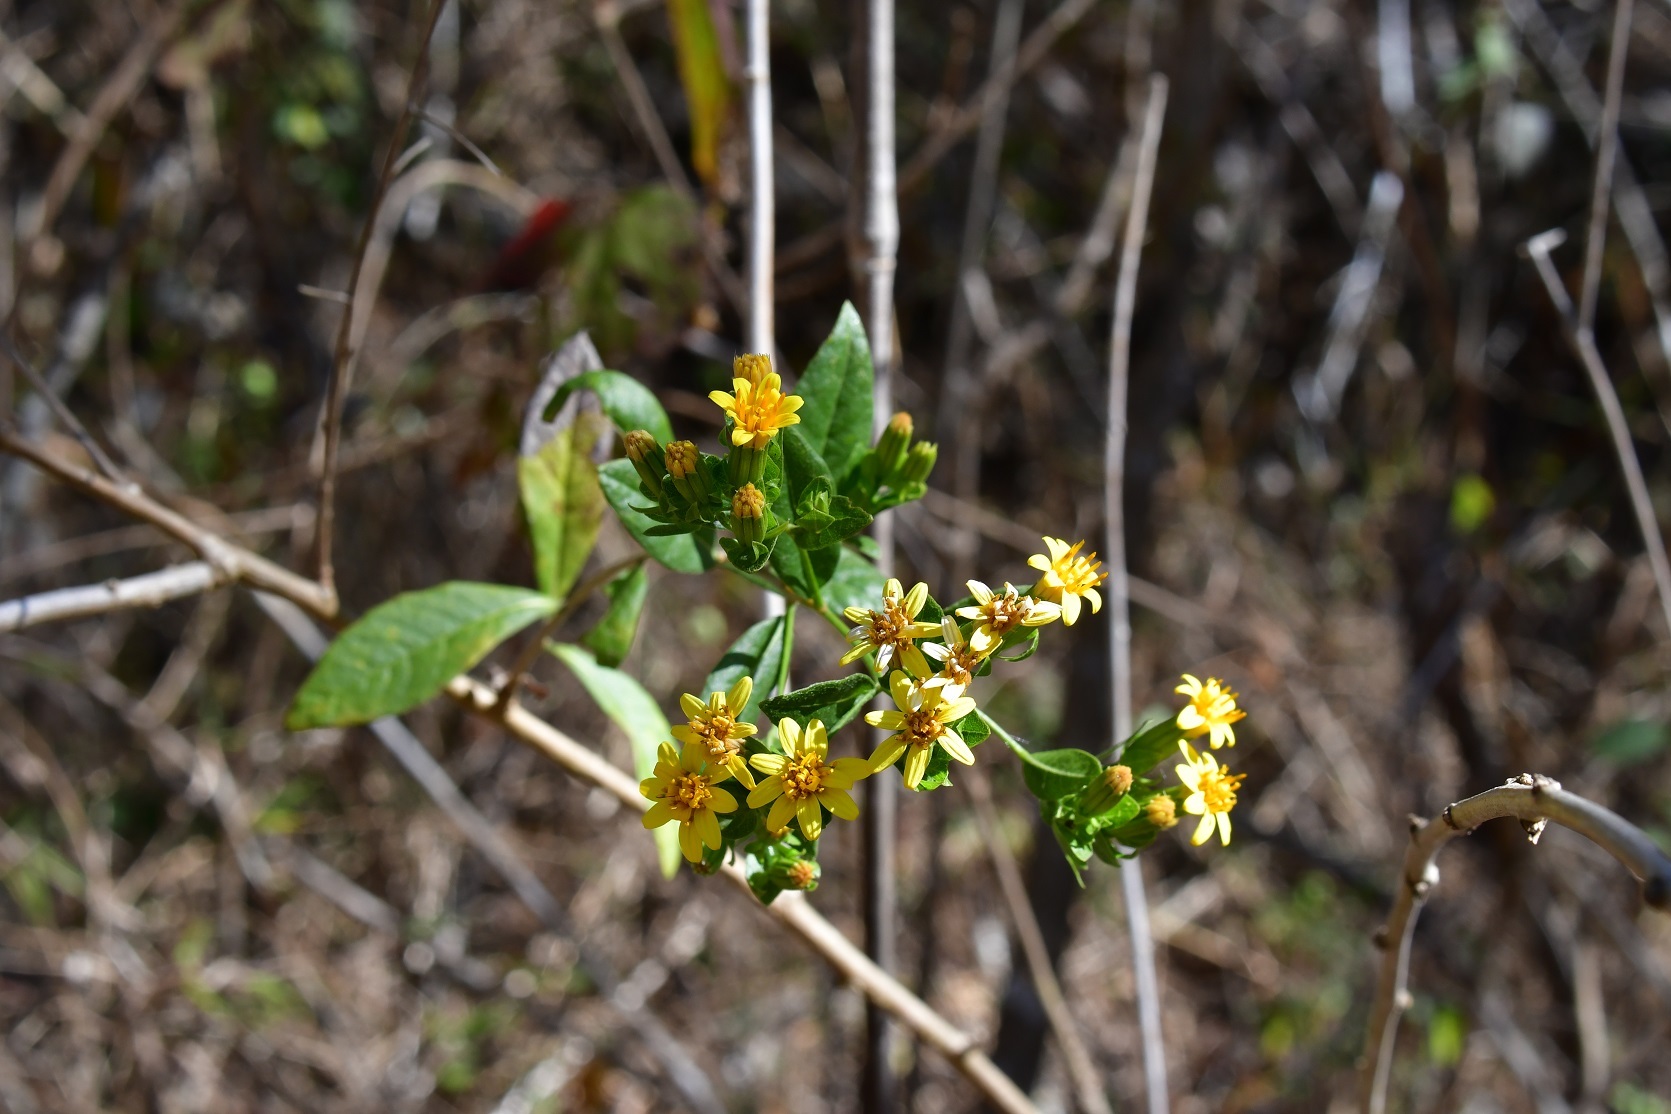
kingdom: Plantae
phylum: Tracheophyta
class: Magnoliopsida
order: Asterales
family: Asteraceae
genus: Trixis
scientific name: Trixis inula
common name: Tropical threefold
